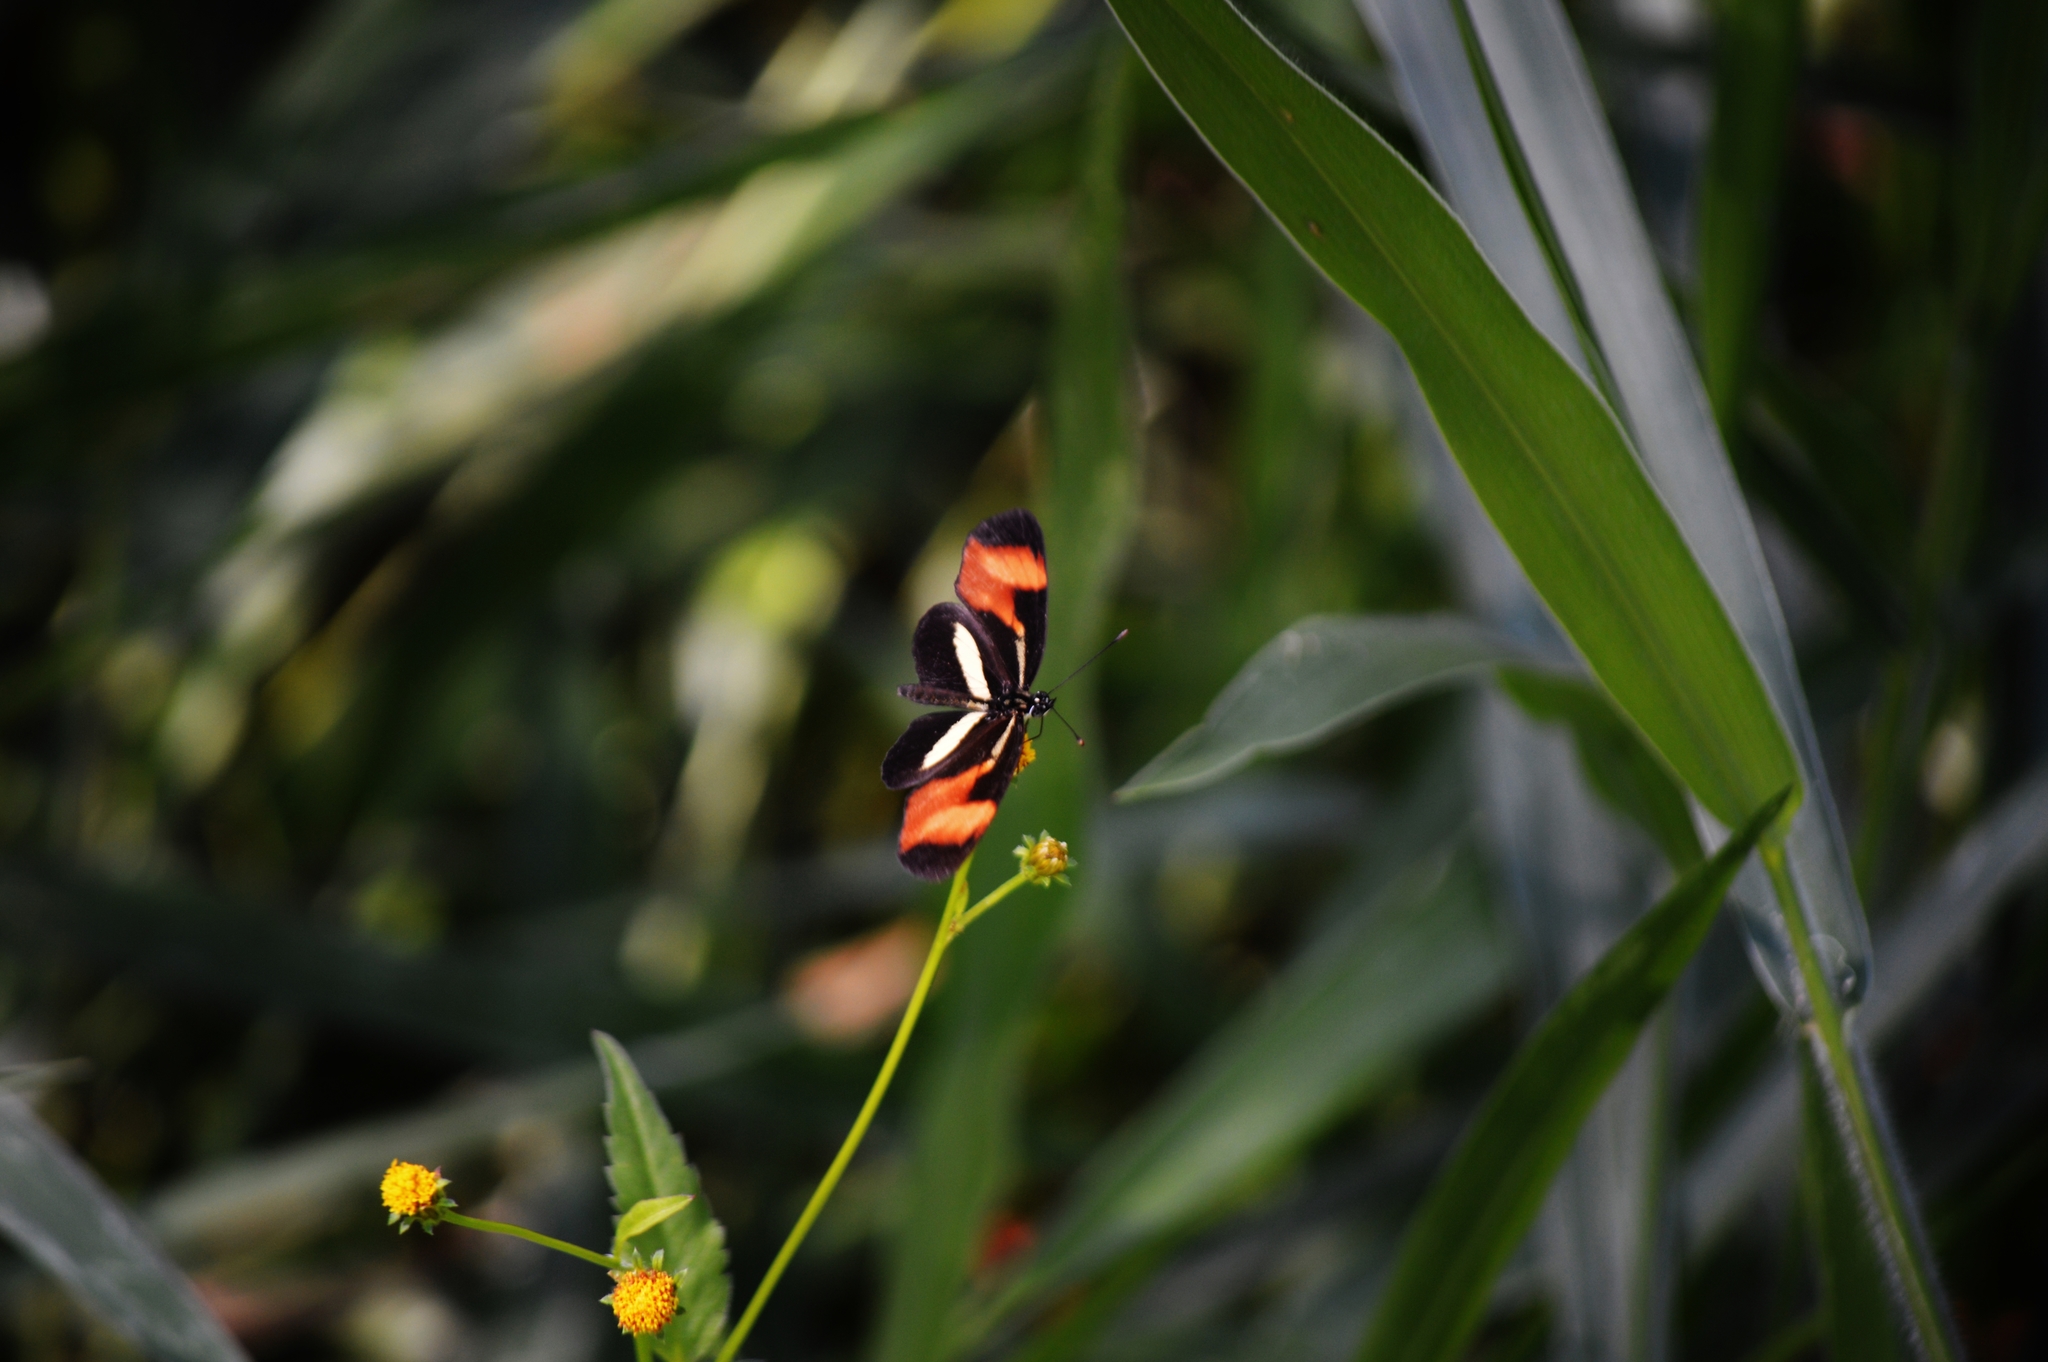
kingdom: Animalia
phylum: Arthropoda
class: Insecta
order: Lepidoptera
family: Nymphalidae
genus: Eresia
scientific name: Eresia lansdorfi
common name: Lansdorf's crescent
